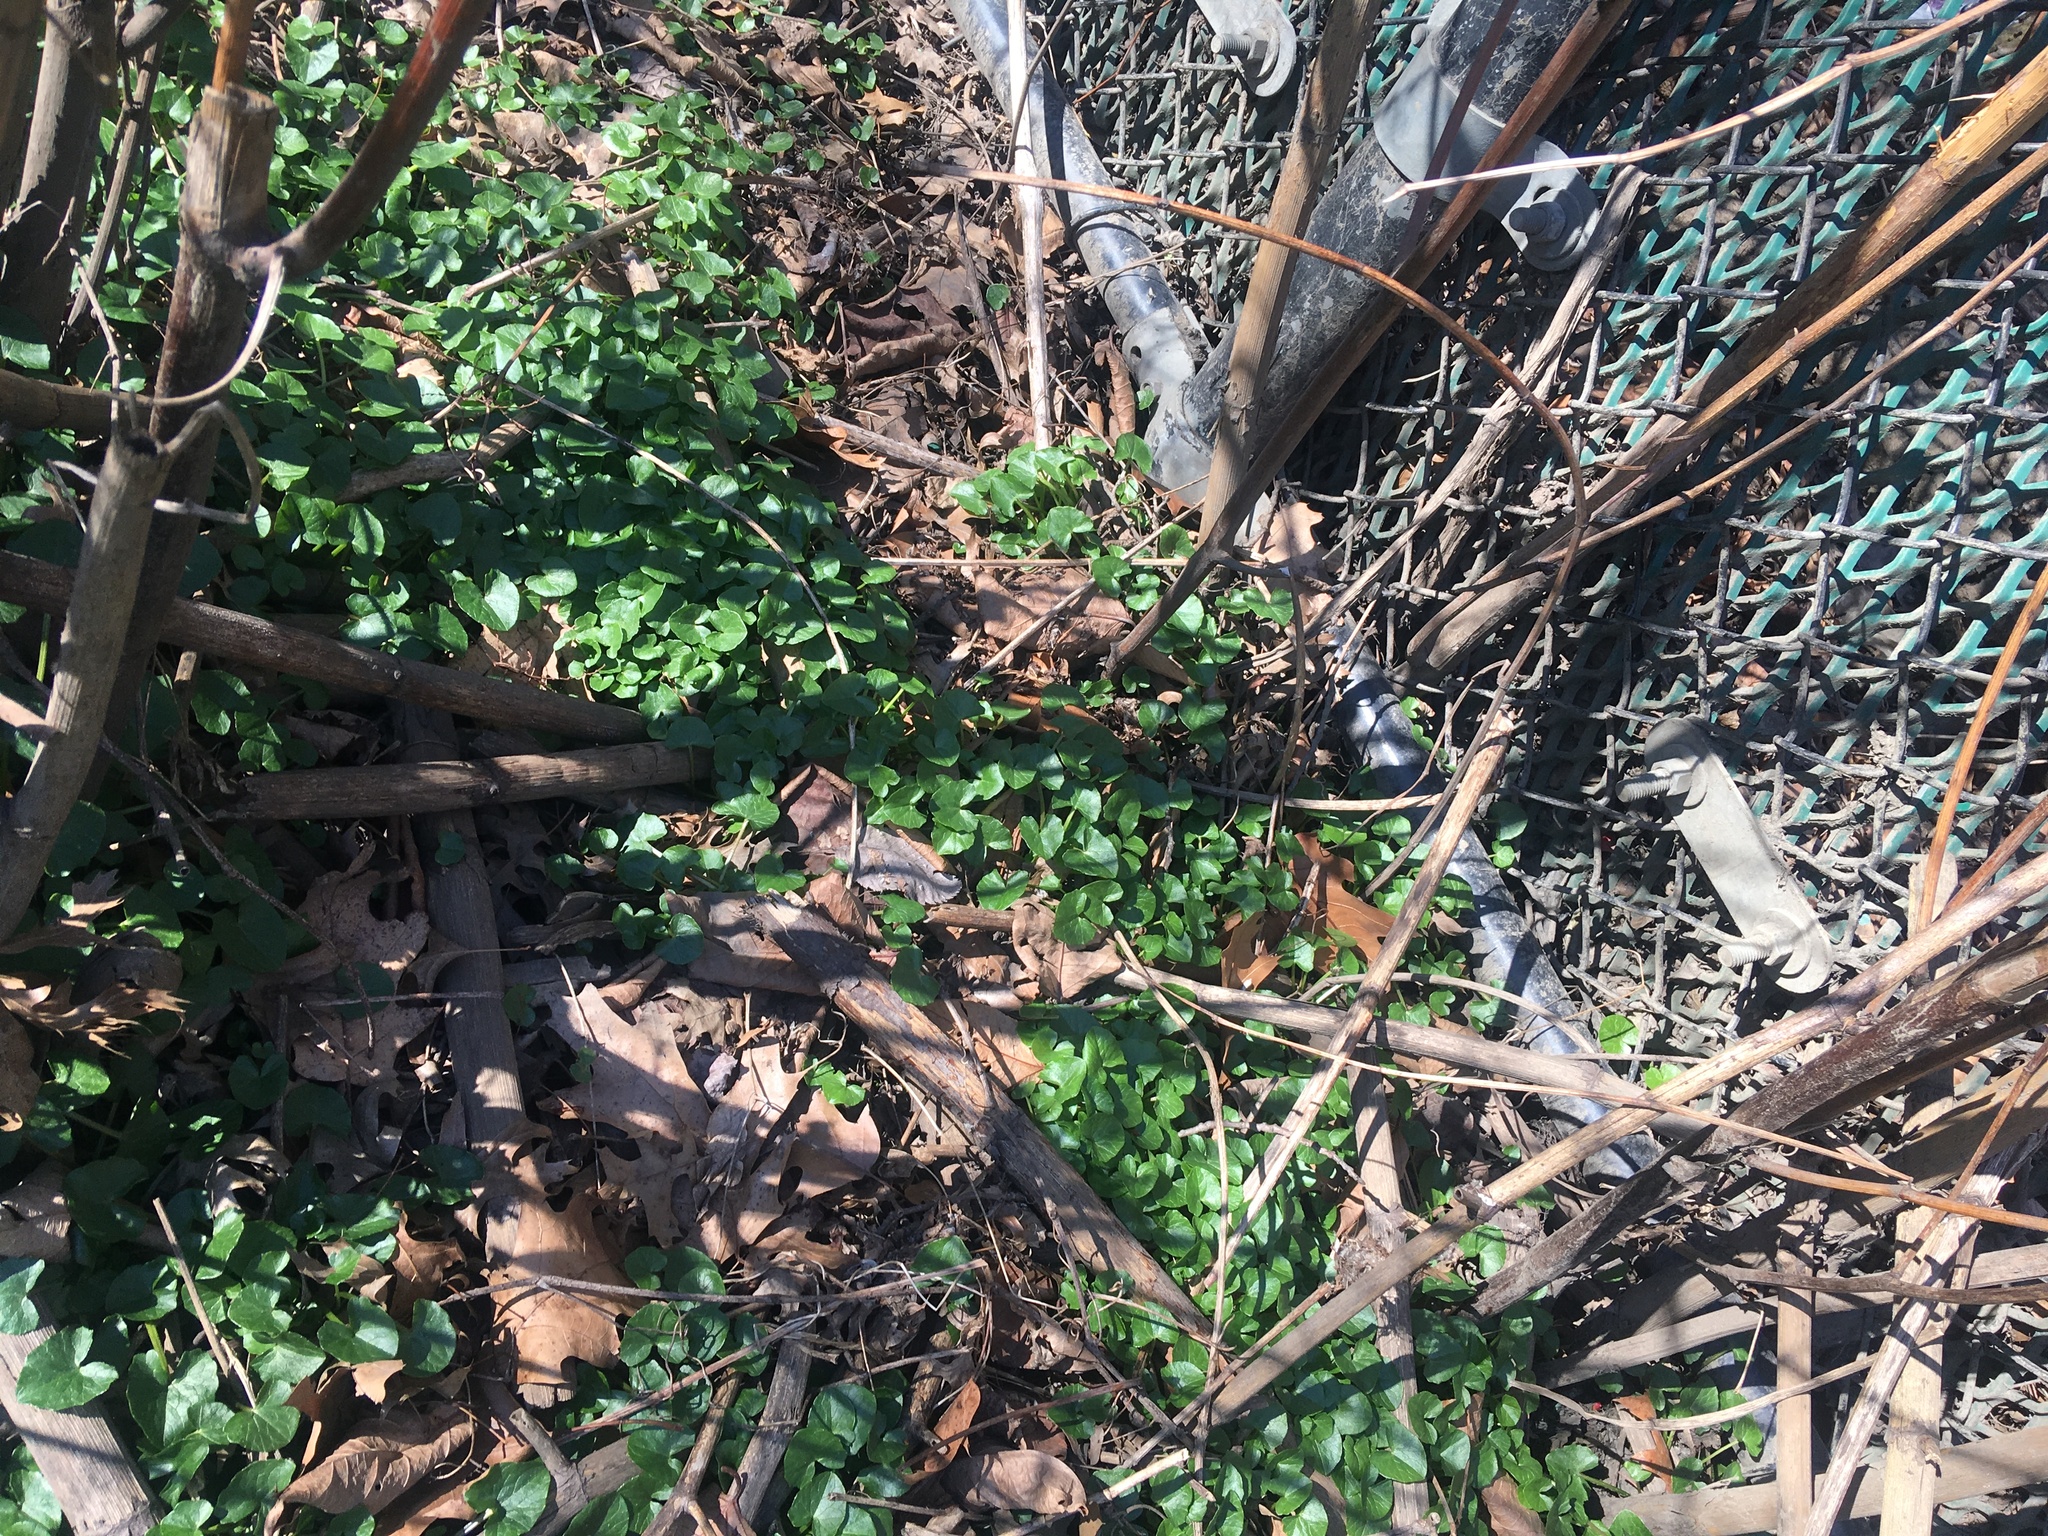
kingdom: Plantae
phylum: Tracheophyta
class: Magnoliopsida
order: Ranunculales
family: Ranunculaceae
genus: Ficaria
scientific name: Ficaria verna
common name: Lesser celandine
